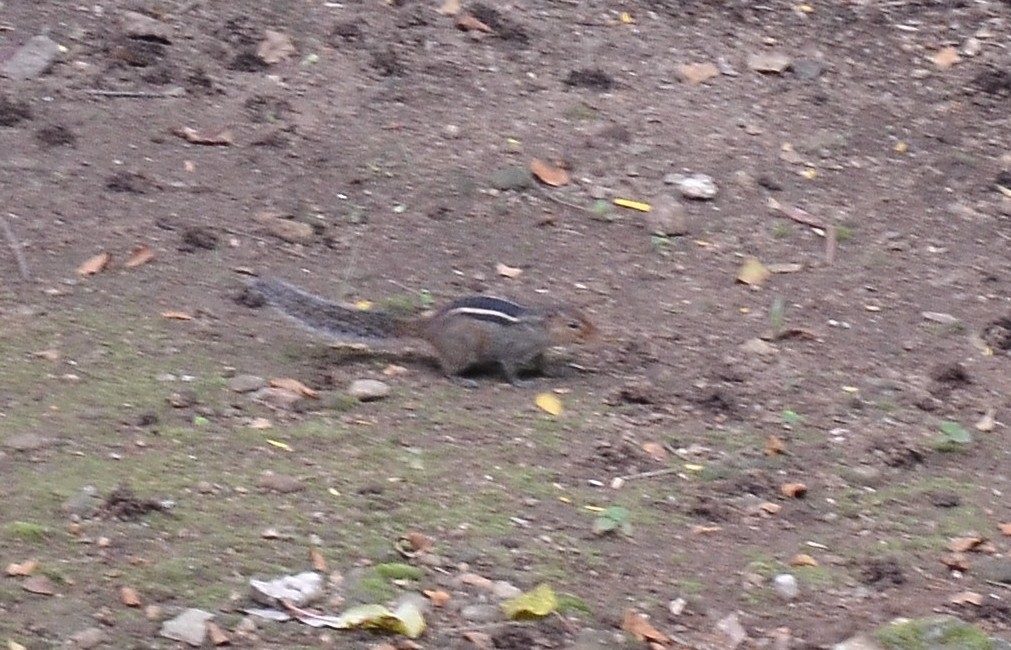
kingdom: Animalia
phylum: Chordata
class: Mammalia
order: Rodentia
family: Sciuridae
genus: Funambulus
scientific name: Funambulus tristriatus
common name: Jungle palm squirrel
